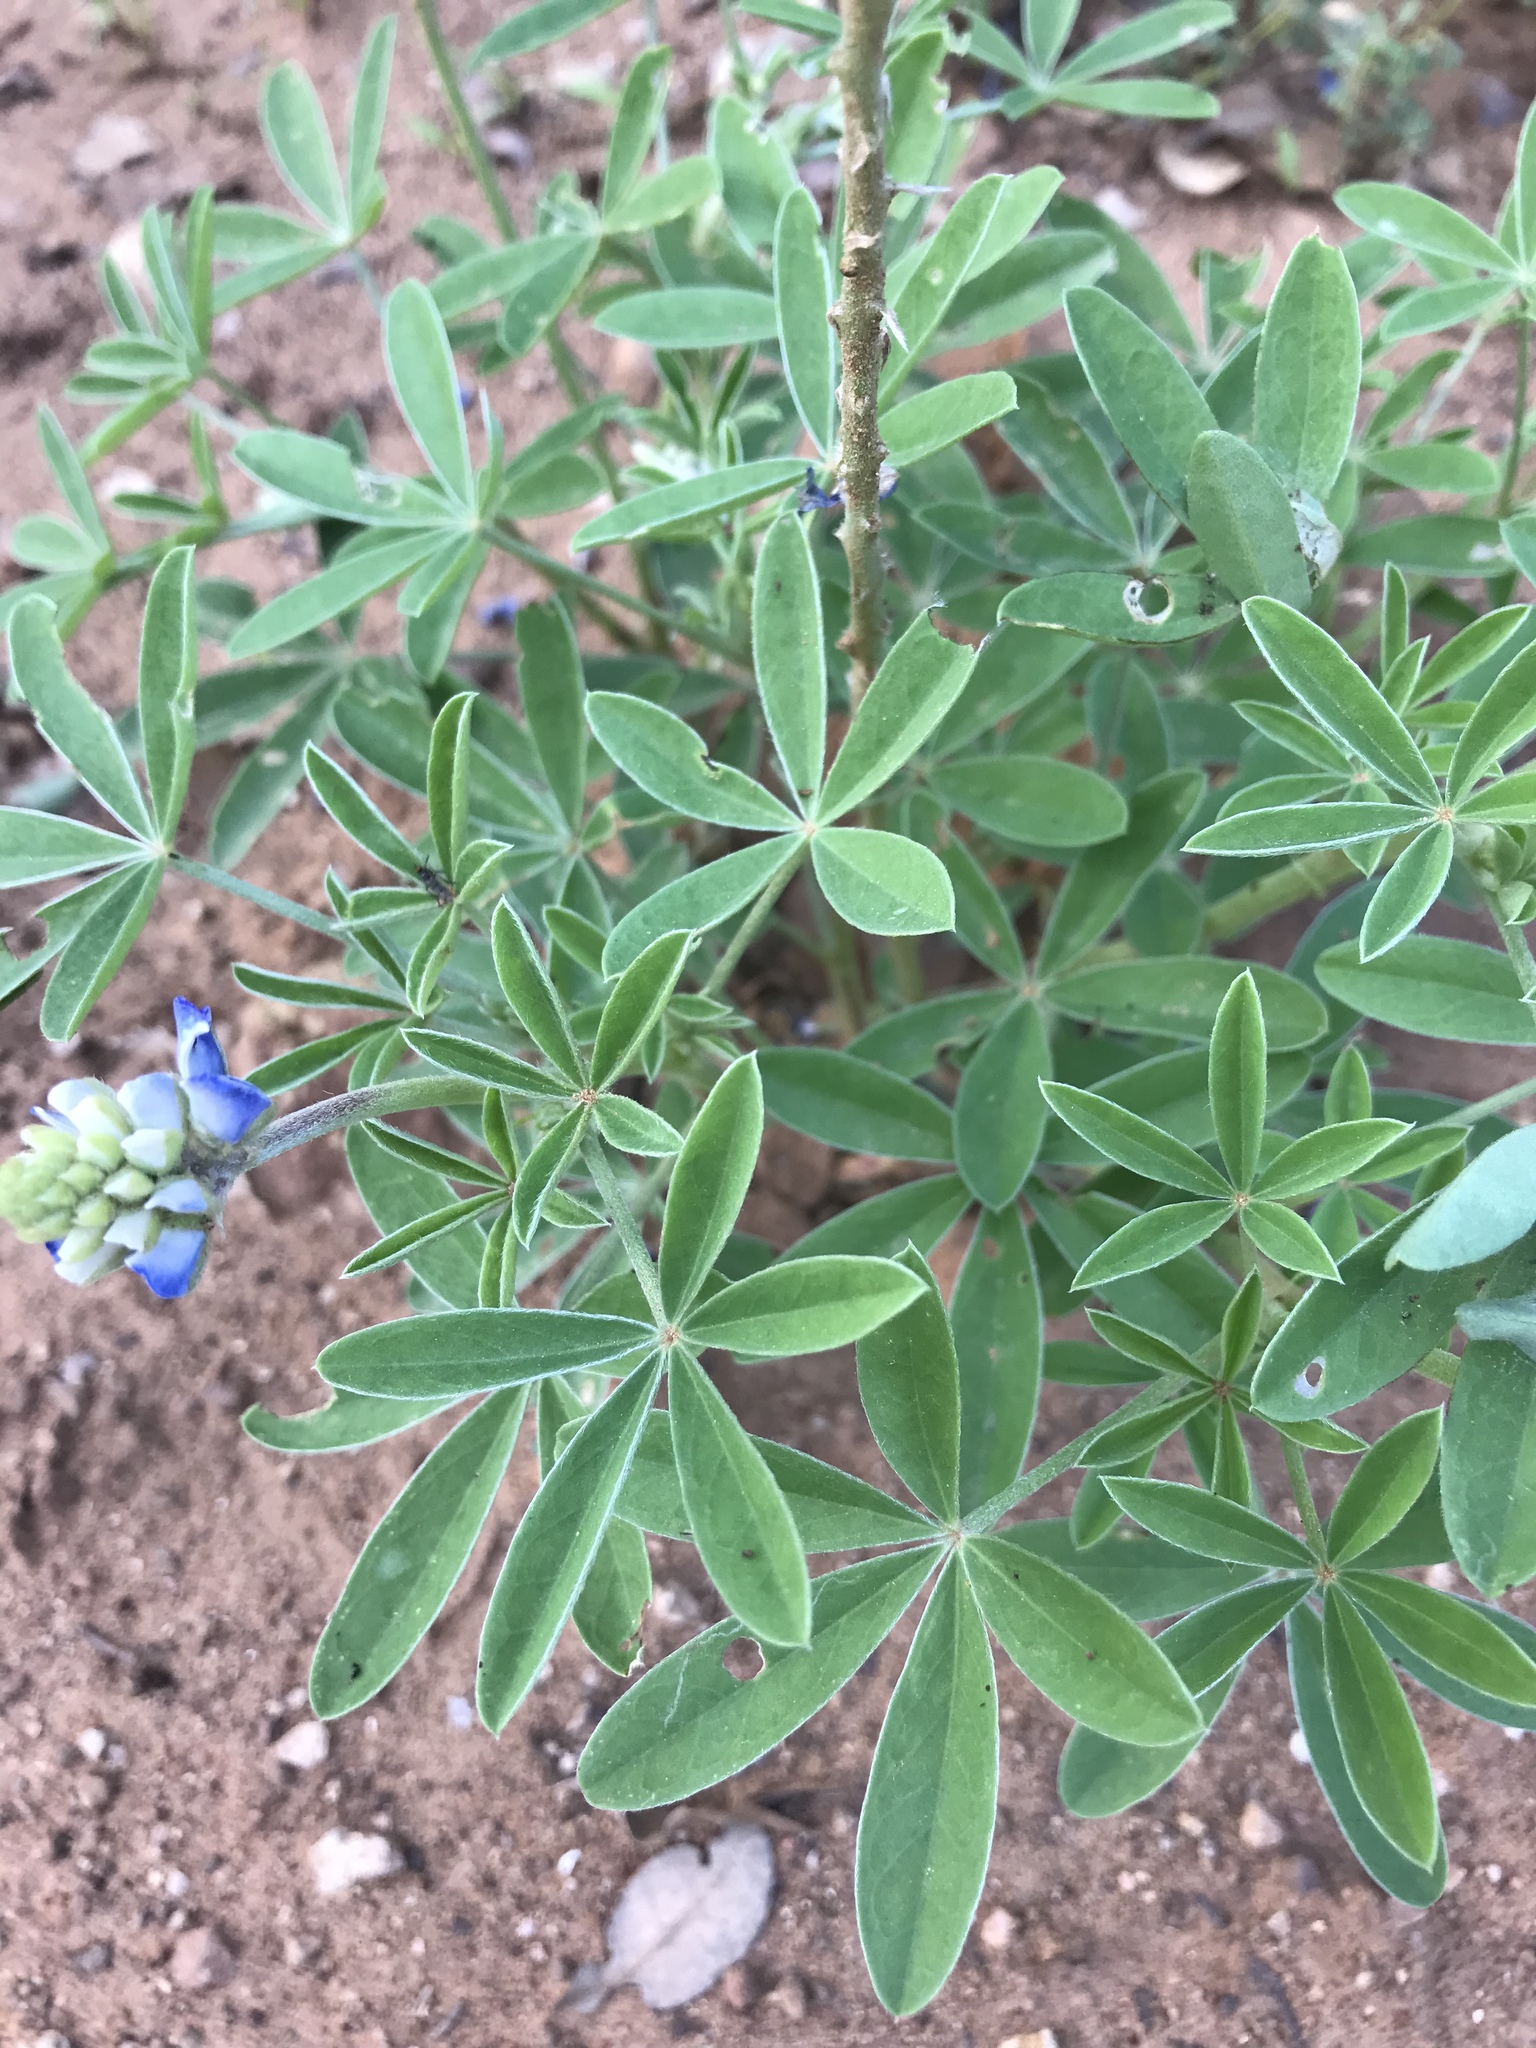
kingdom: Plantae
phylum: Tracheophyta
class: Magnoliopsida
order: Fabales
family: Fabaceae
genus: Lupinus
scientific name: Lupinus texensis
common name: Texas bluebonnet
